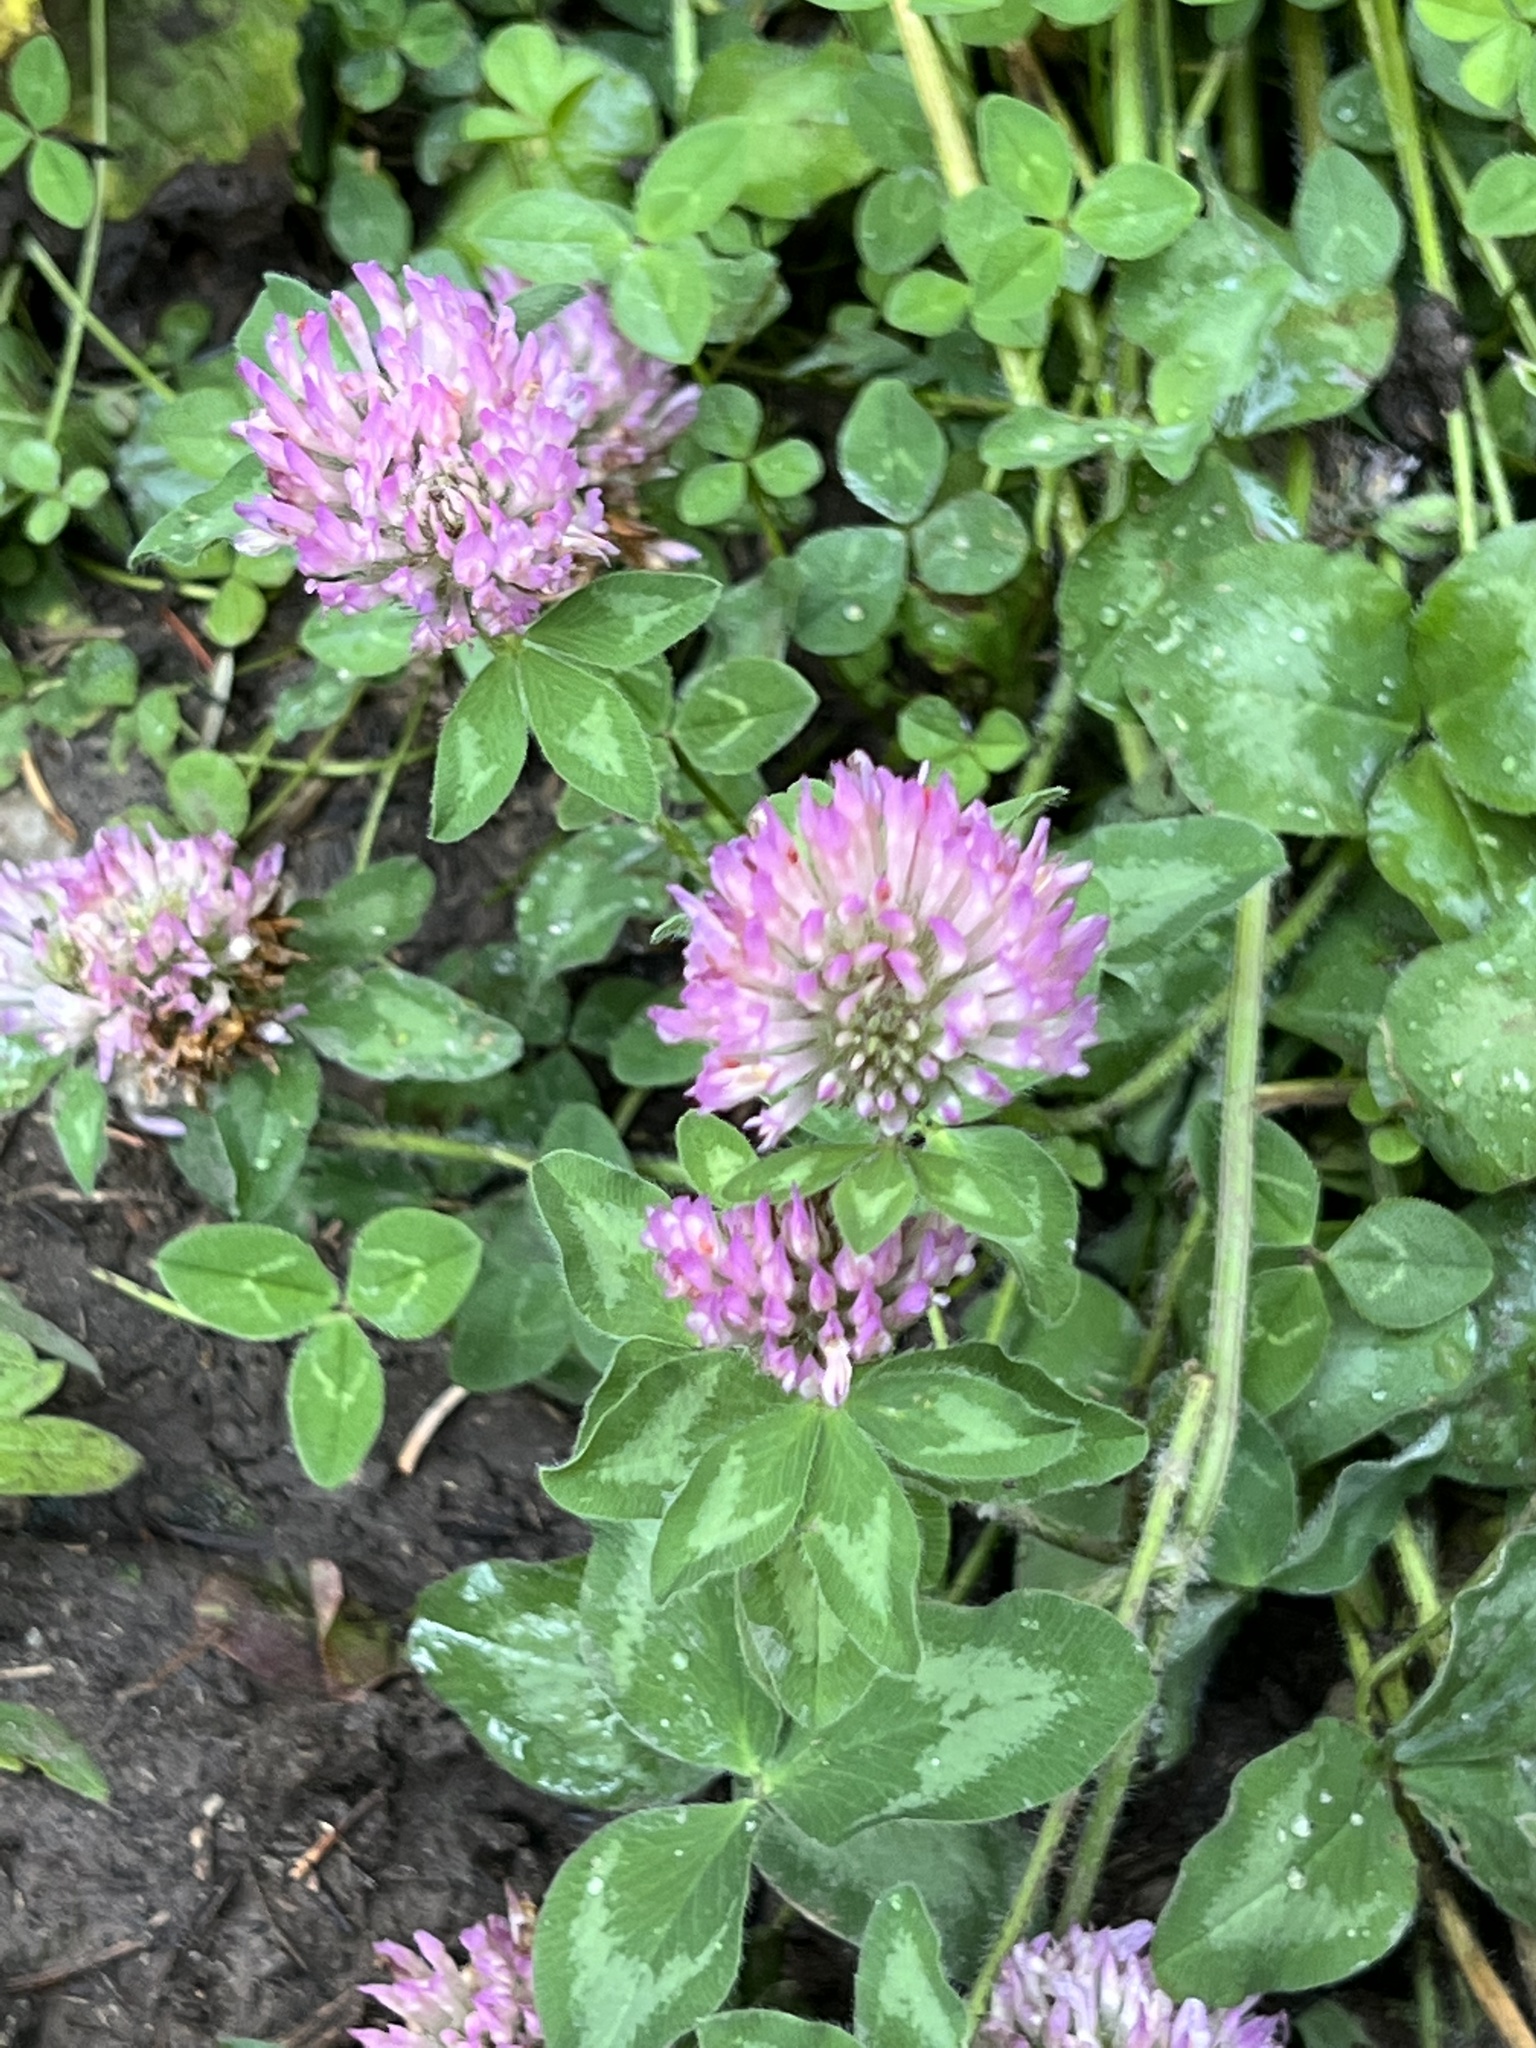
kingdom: Plantae
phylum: Tracheophyta
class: Magnoliopsida
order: Fabales
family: Fabaceae
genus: Trifolium
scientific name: Trifolium pratense
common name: Red clover
